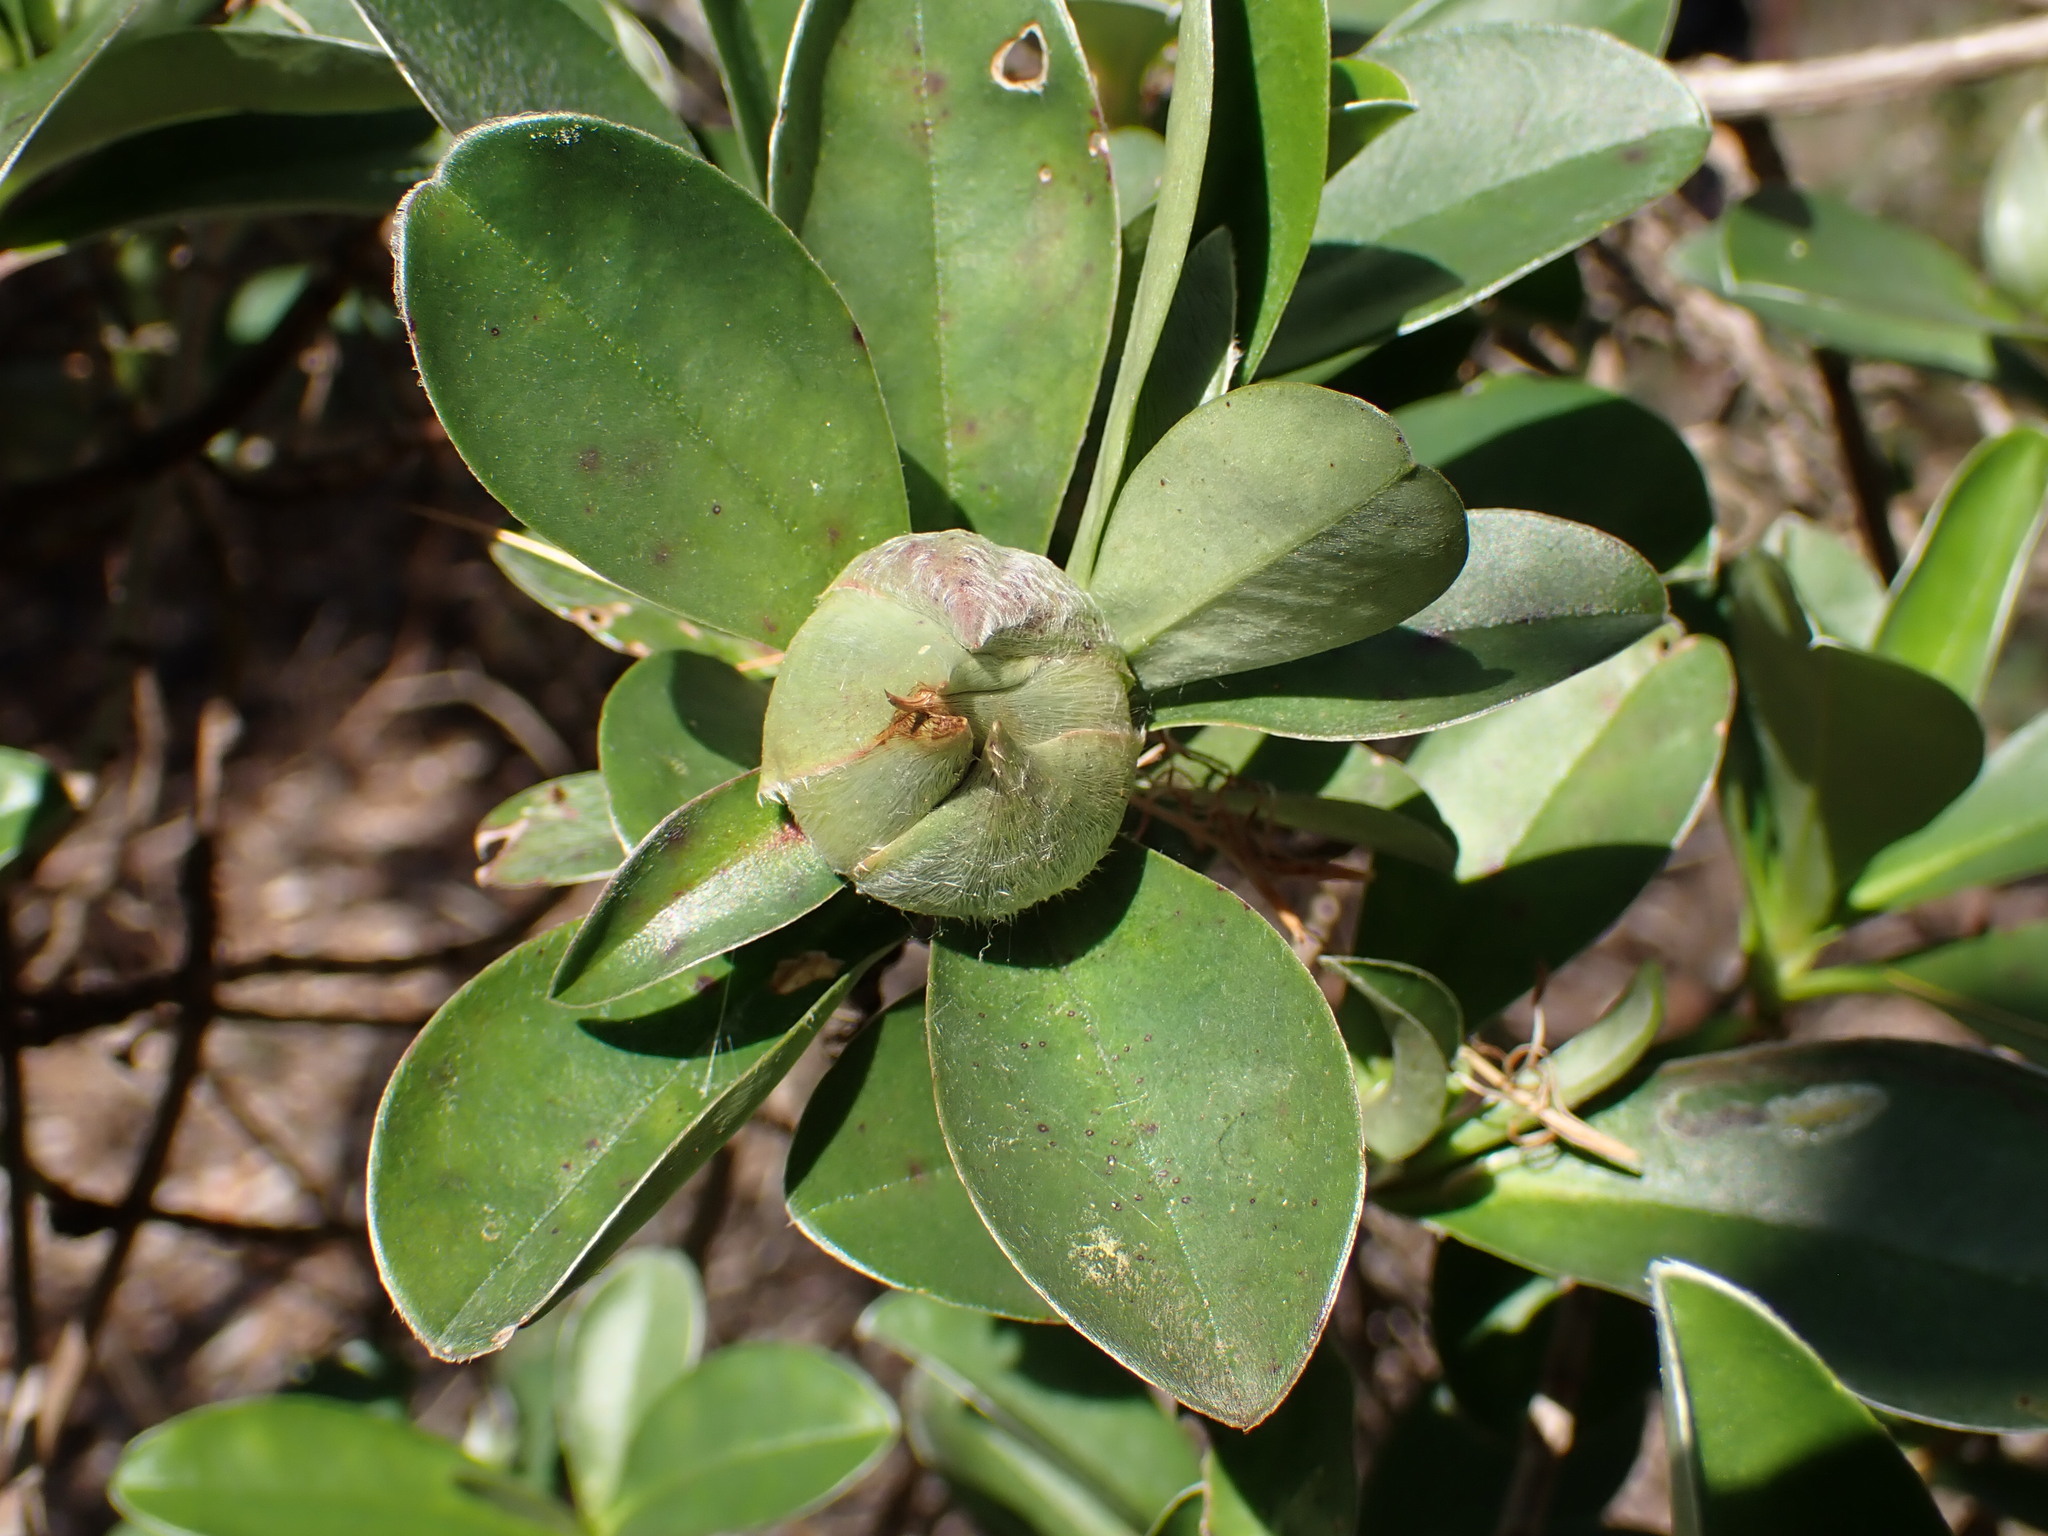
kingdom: Plantae
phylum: Tracheophyta
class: Magnoliopsida
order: Dilleniales
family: Dilleniaceae
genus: Hibbertia
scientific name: Hibbertia scandens
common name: Climbing guinea-flower
